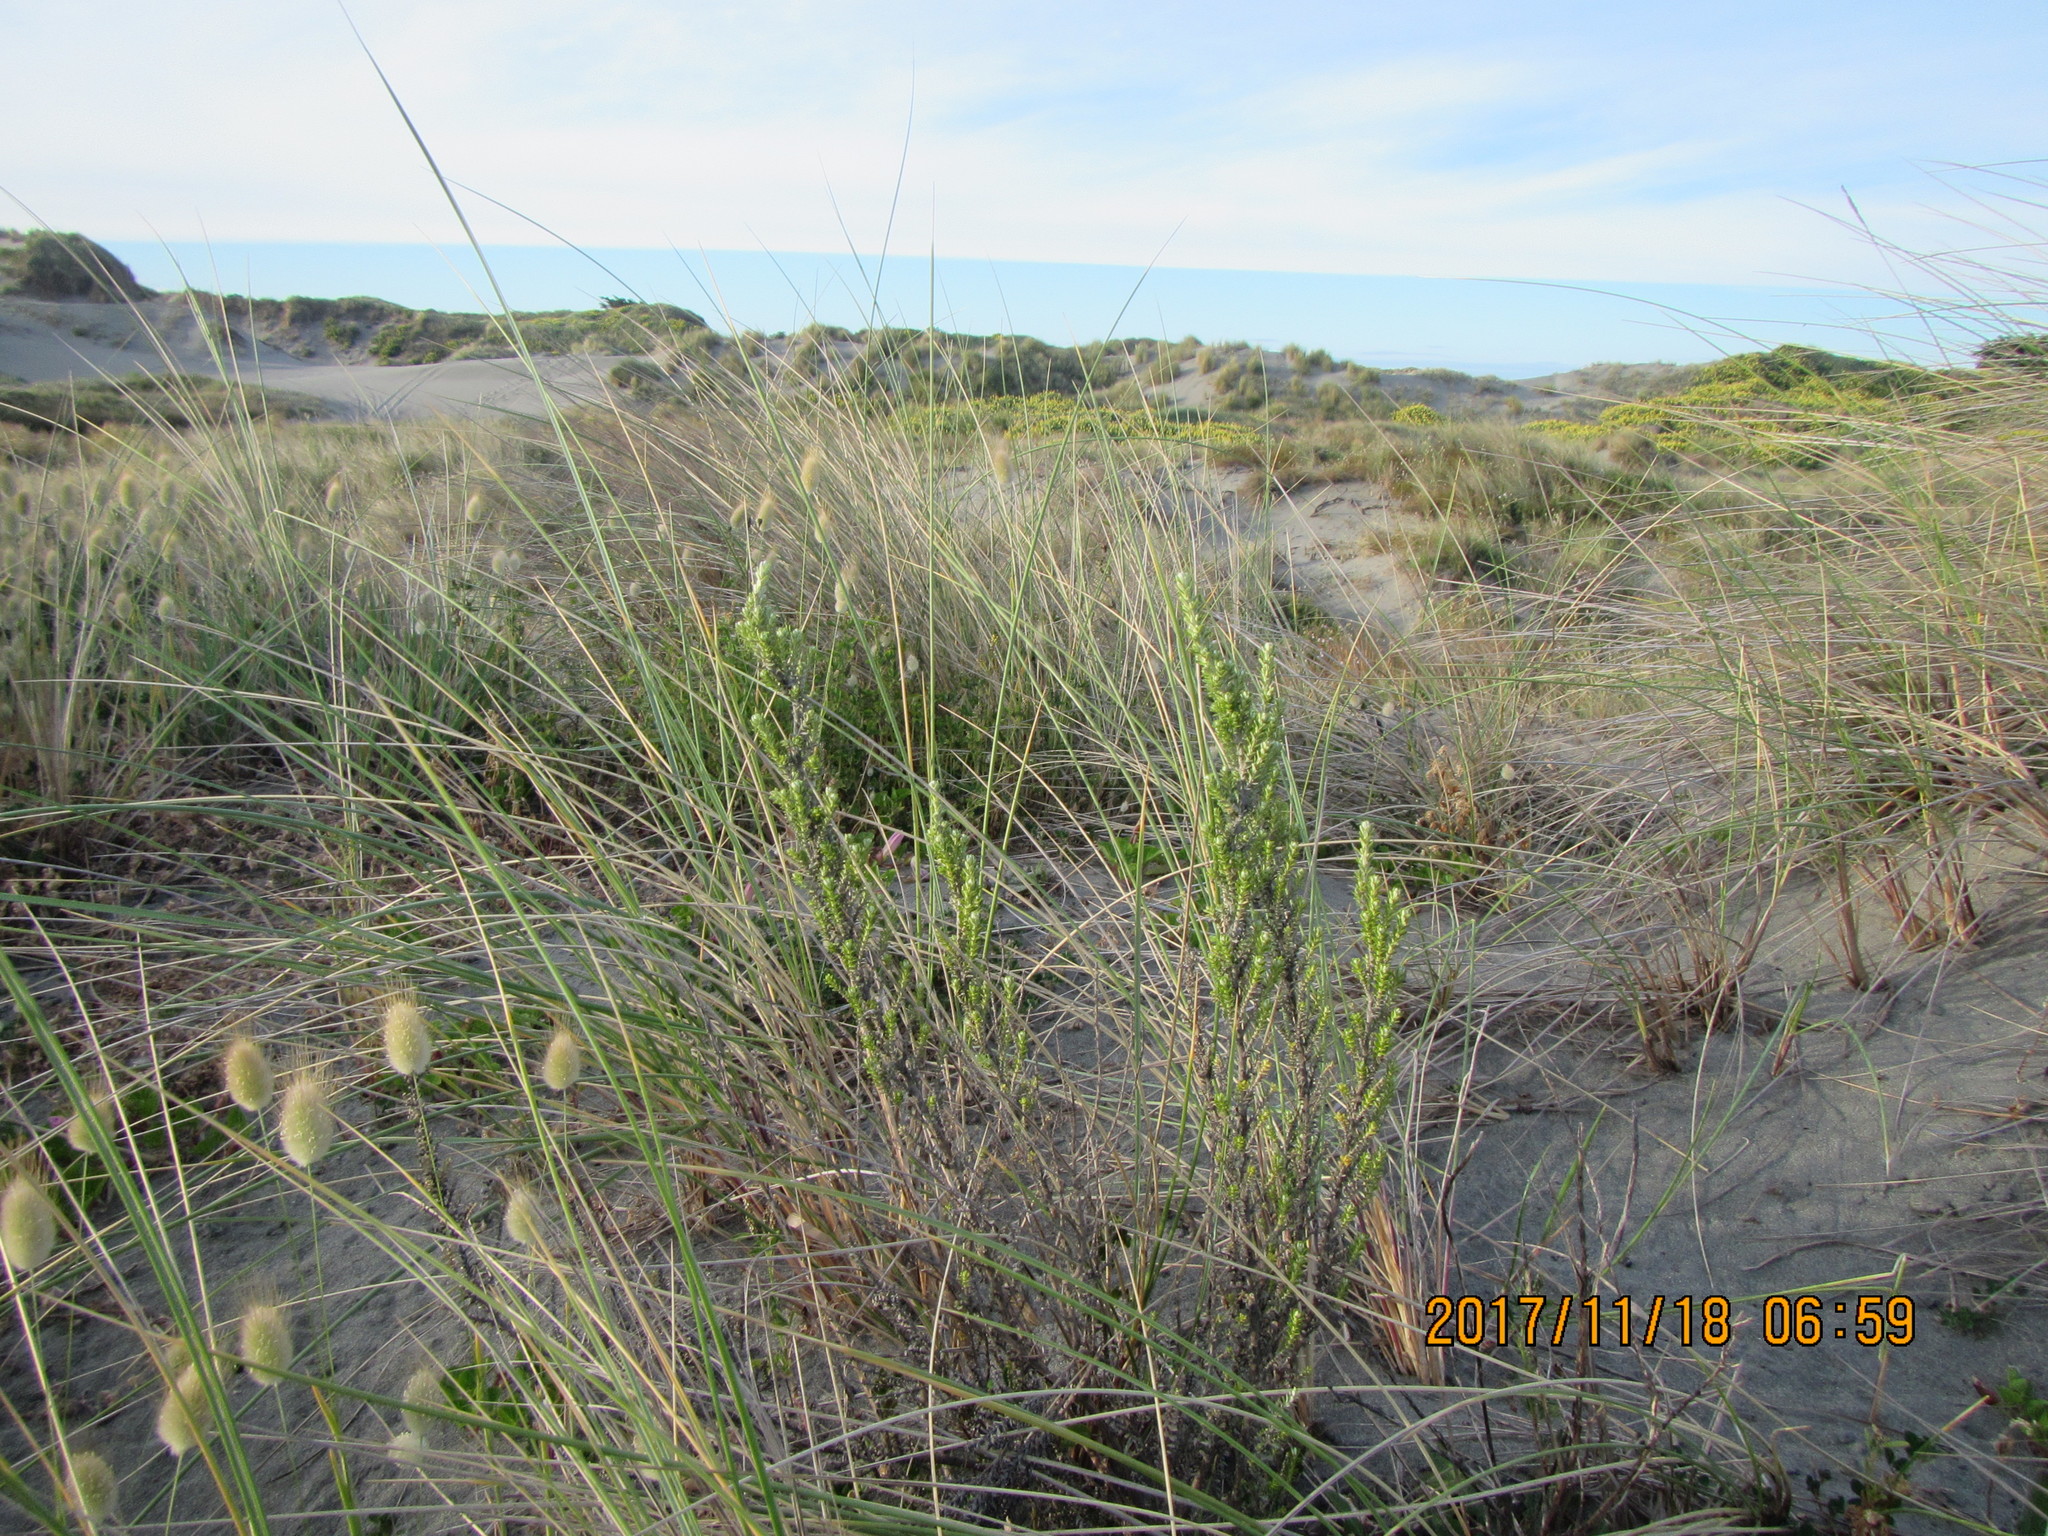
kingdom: Plantae
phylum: Tracheophyta
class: Magnoliopsida
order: Asterales
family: Asteraceae
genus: Ozothamnus
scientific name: Ozothamnus leptophyllus
